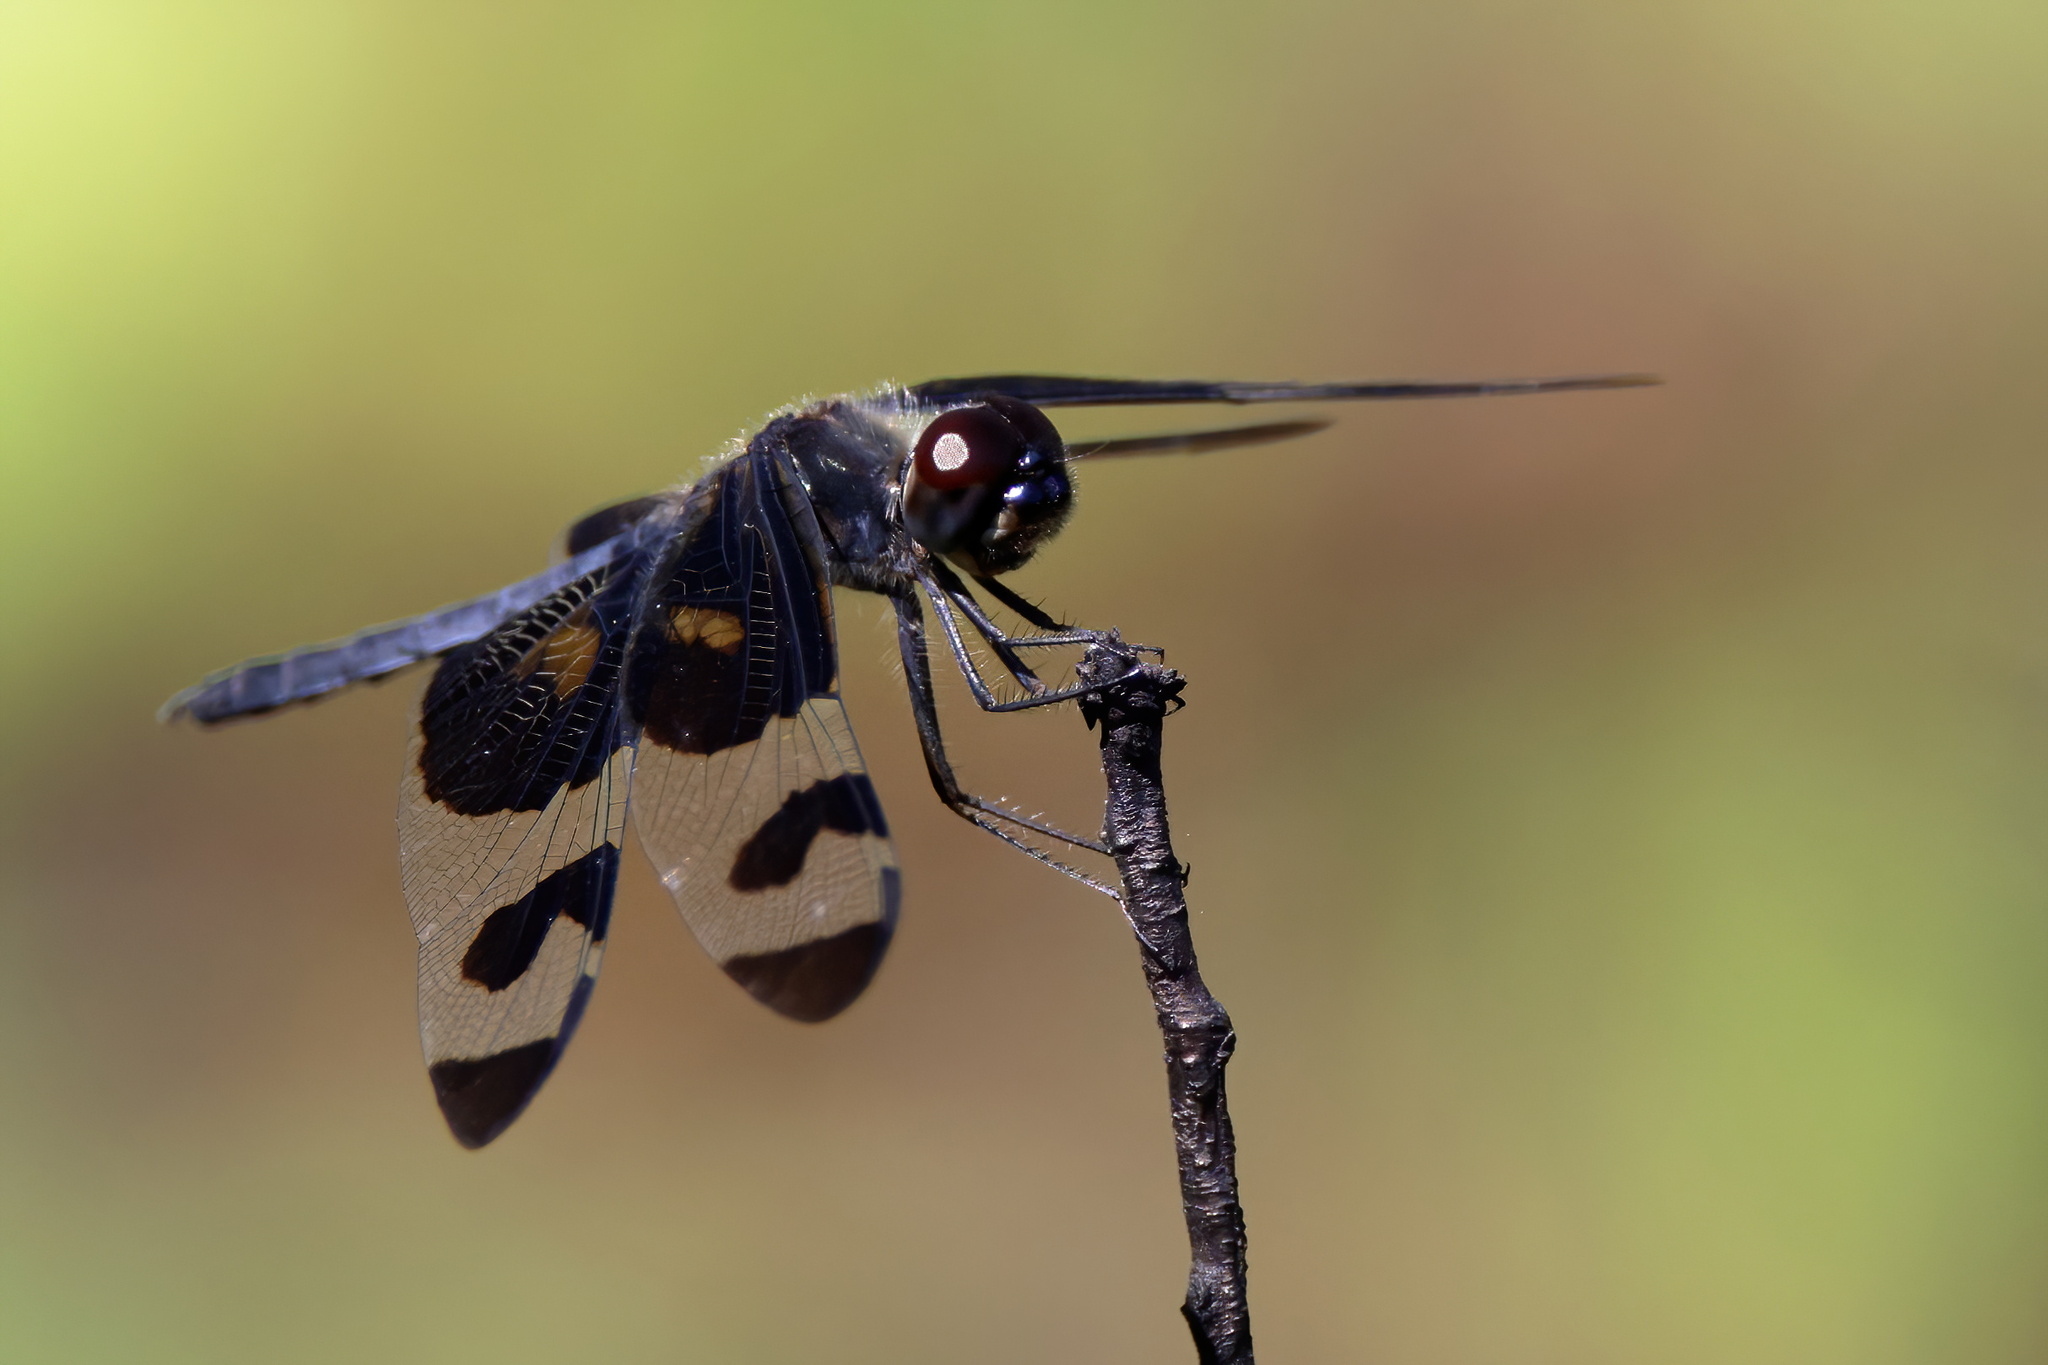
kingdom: Animalia
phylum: Arthropoda
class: Insecta
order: Odonata
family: Libellulidae
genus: Celithemis
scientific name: Celithemis fasciata
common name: Banded pennant
